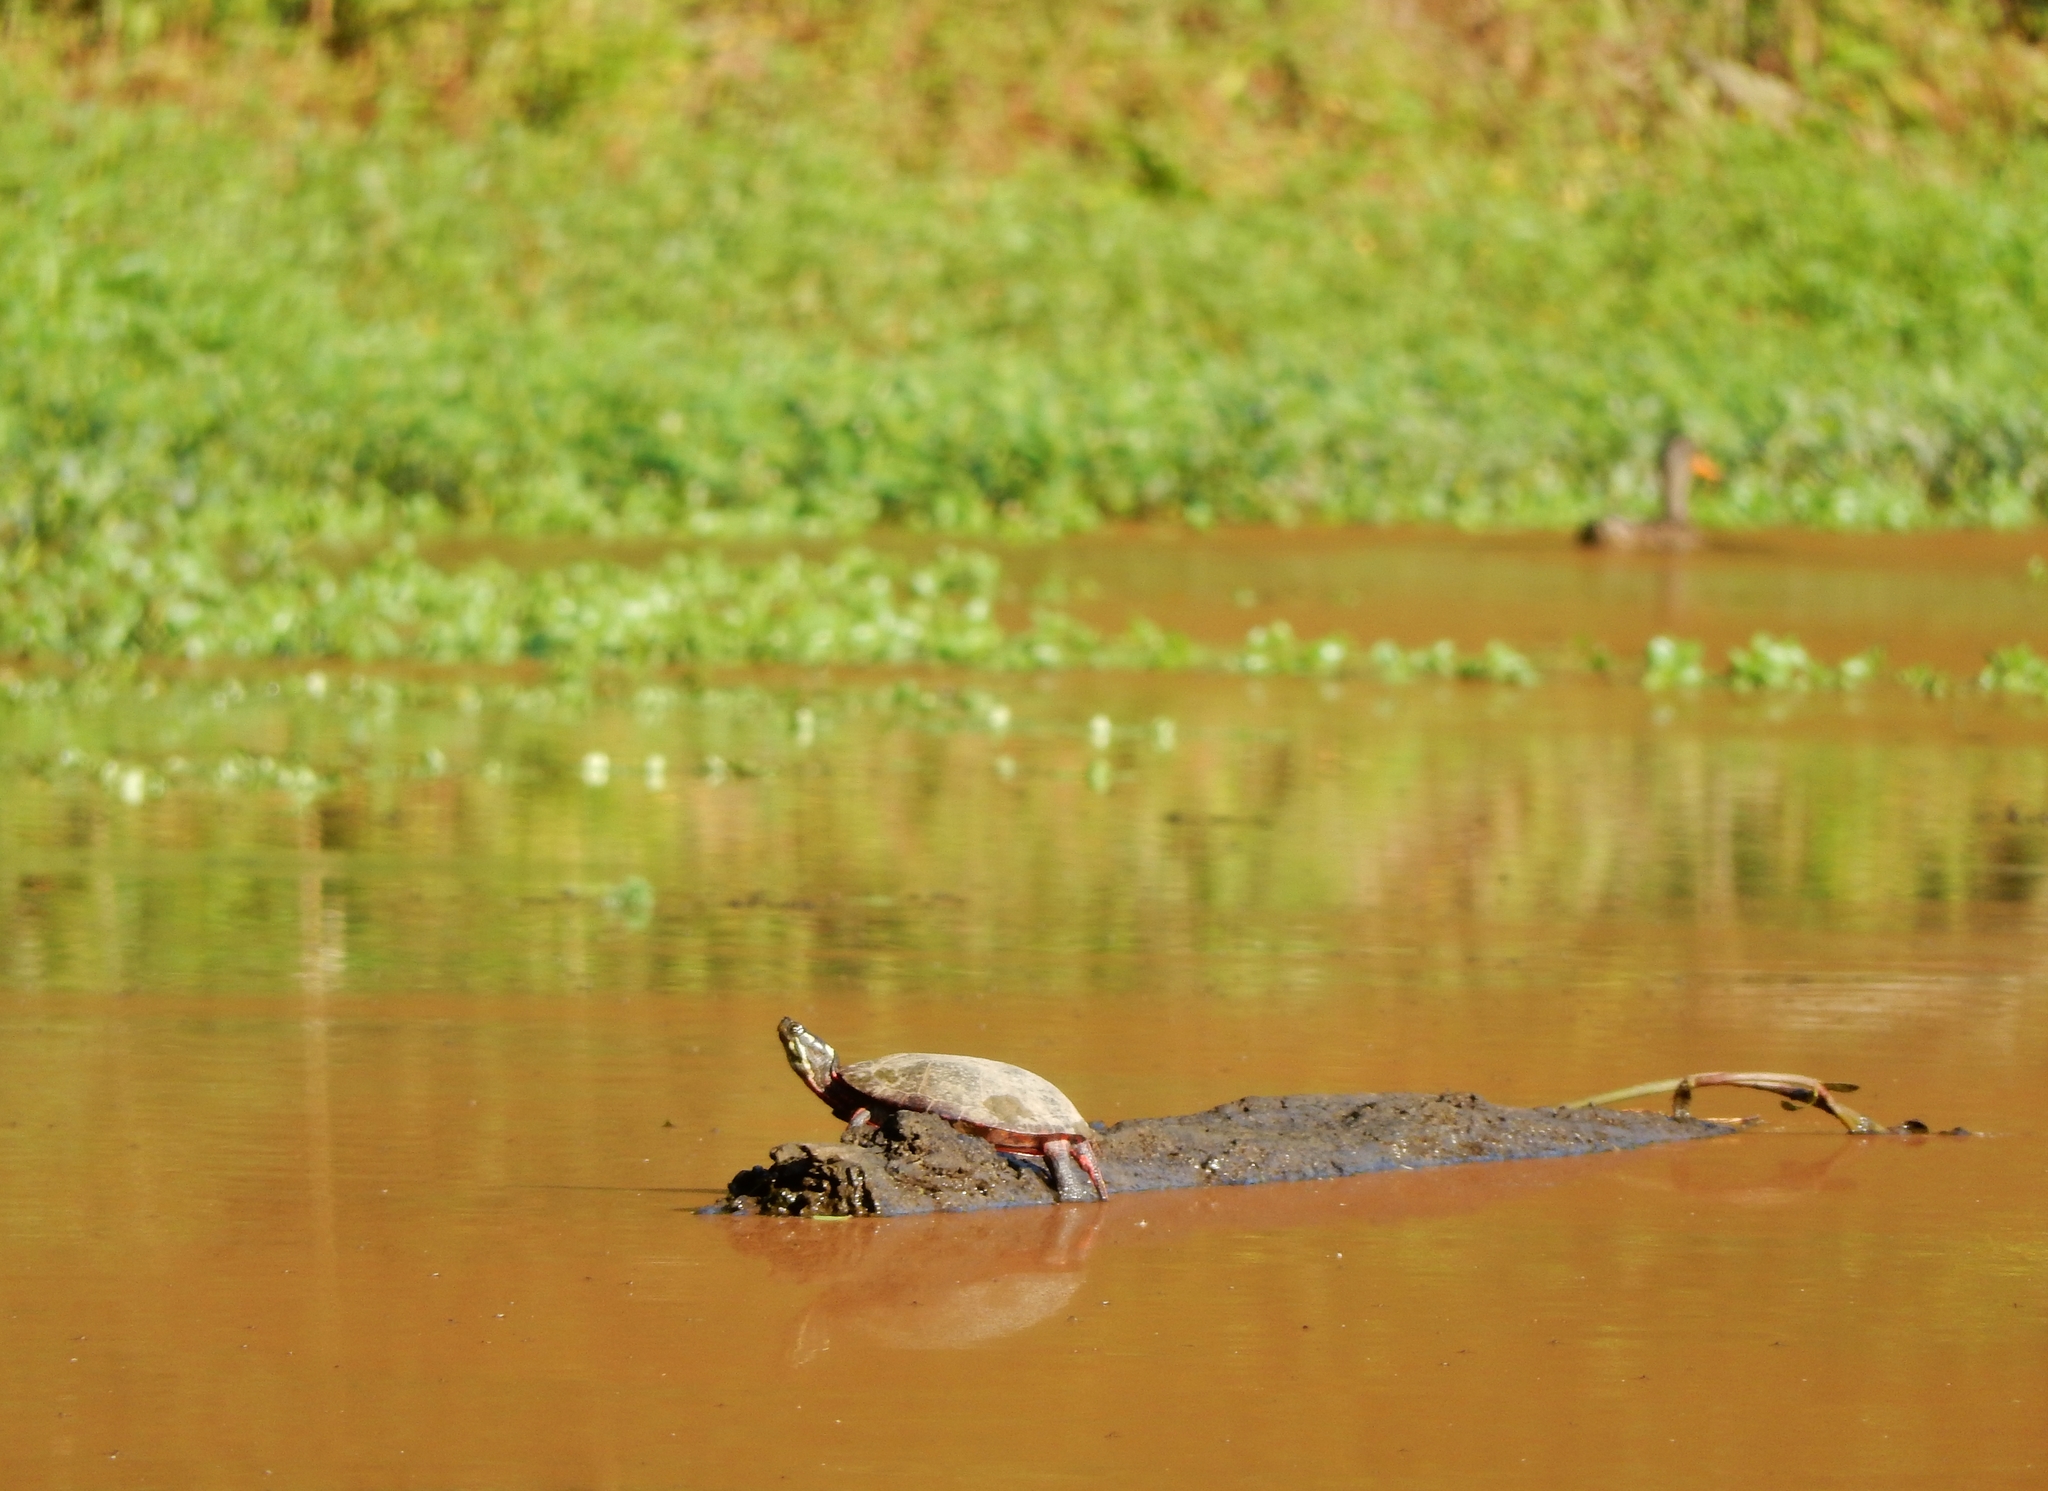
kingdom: Animalia
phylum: Chordata
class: Testudines
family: Emydidae
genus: Chrysemys
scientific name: Chrysemys picta
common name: Painted turtle
